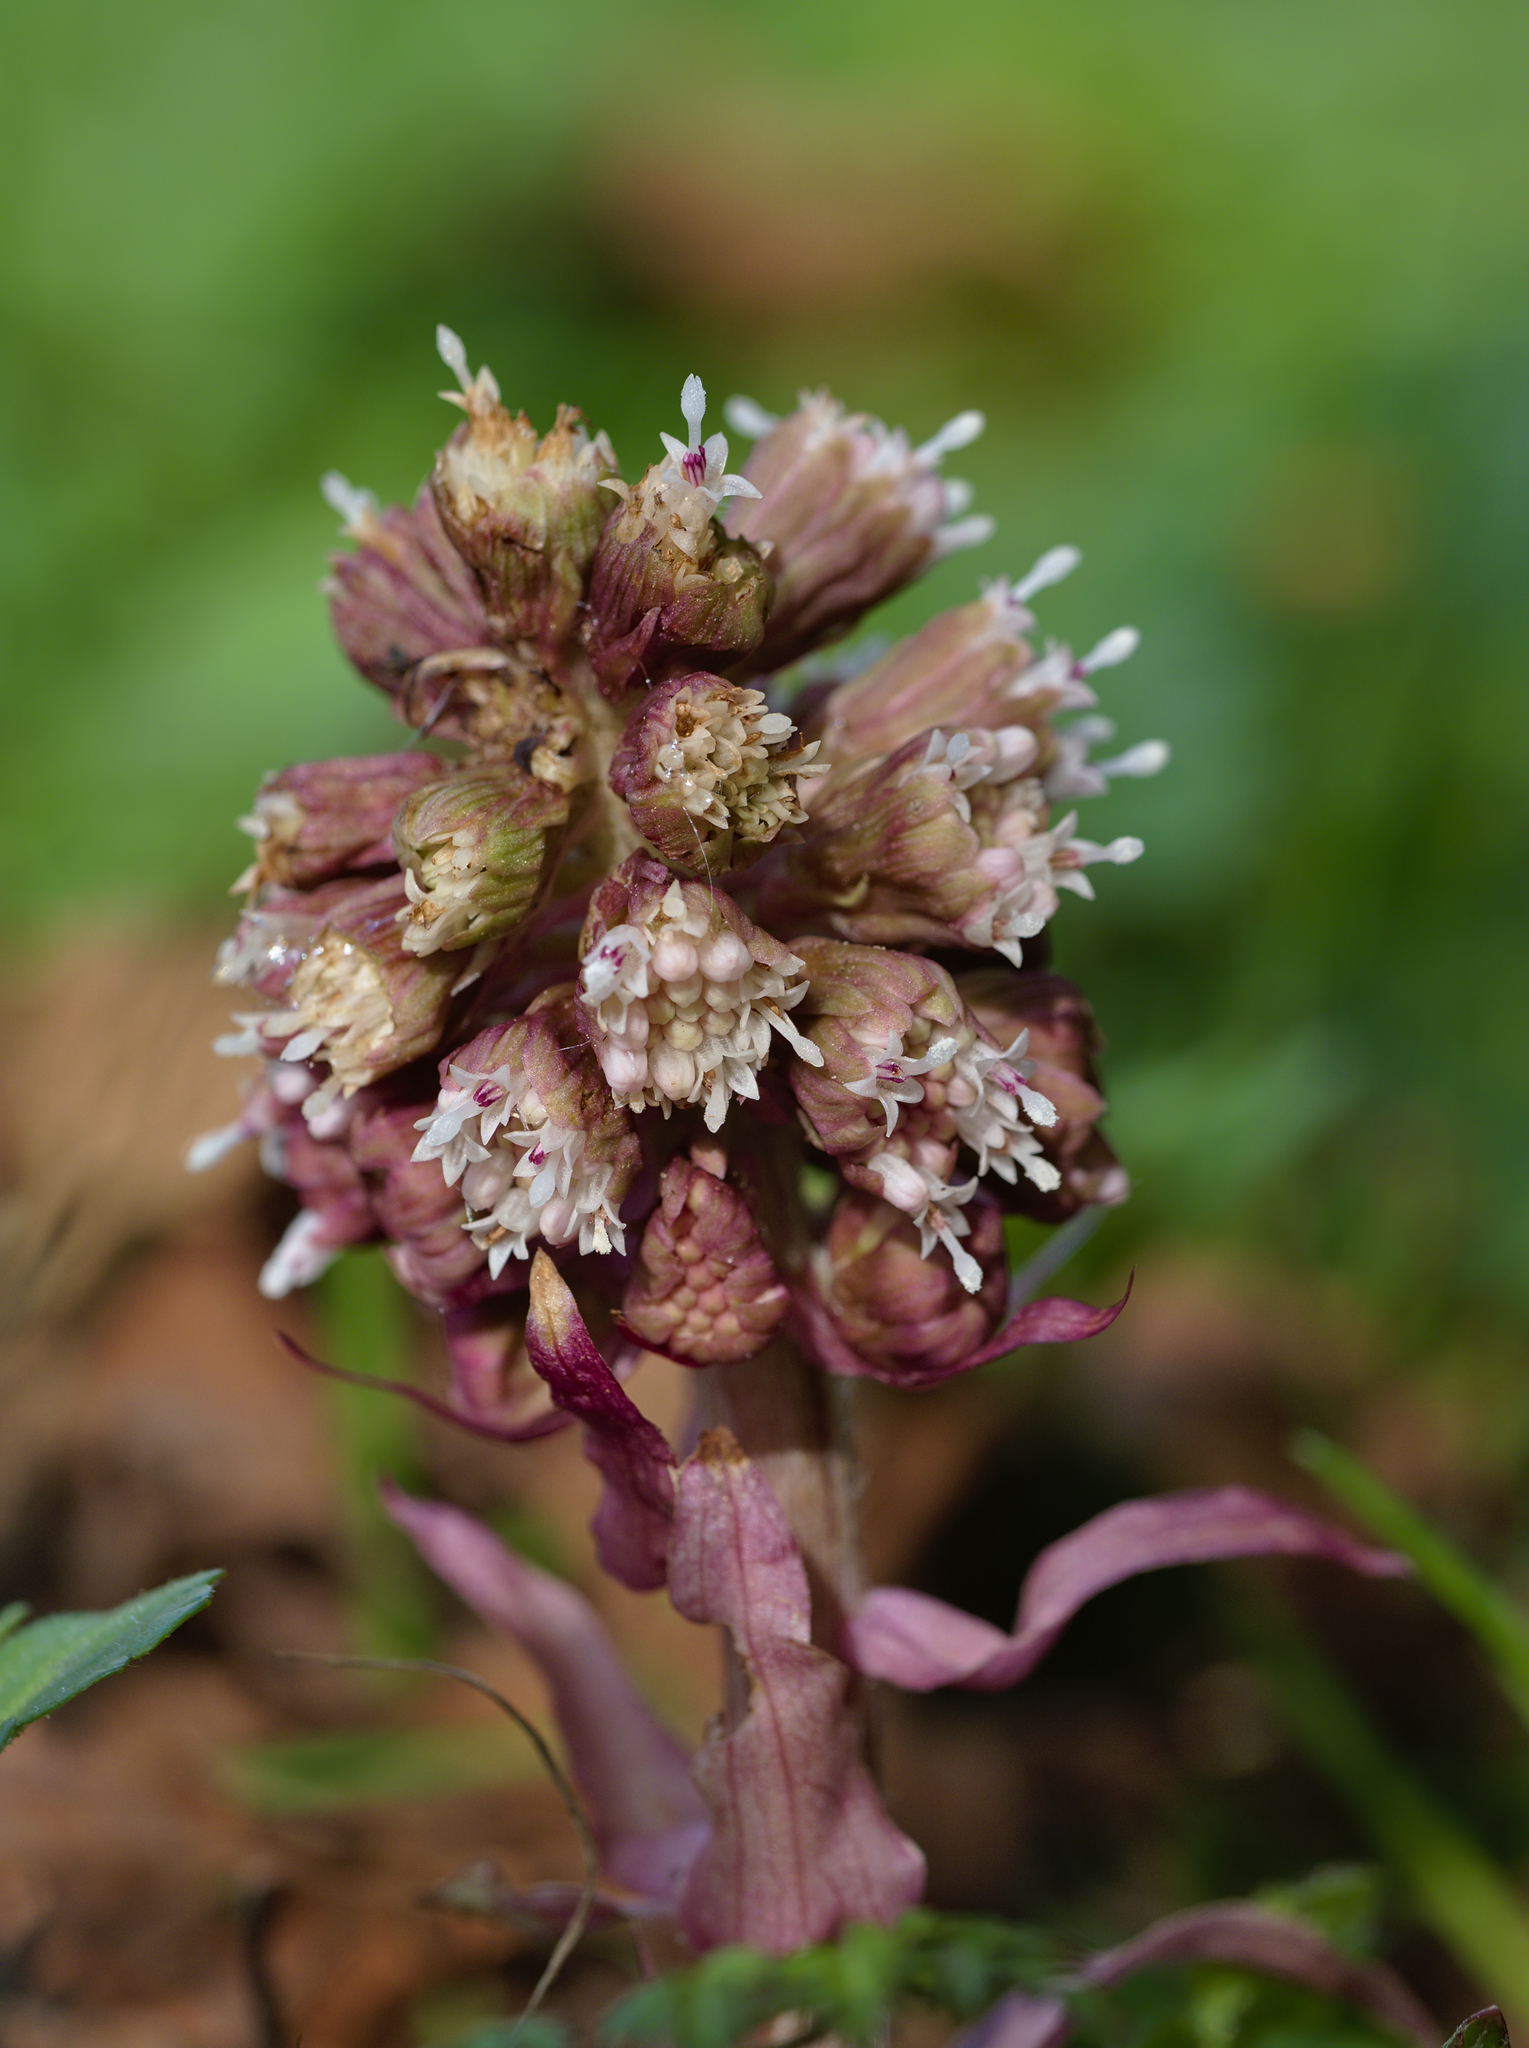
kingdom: Plantae
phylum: Tracheophyta
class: Magnoliopsida
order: Asterales
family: Asteraceae
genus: Petasites
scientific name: Petasites hybridus
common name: Butterbur
